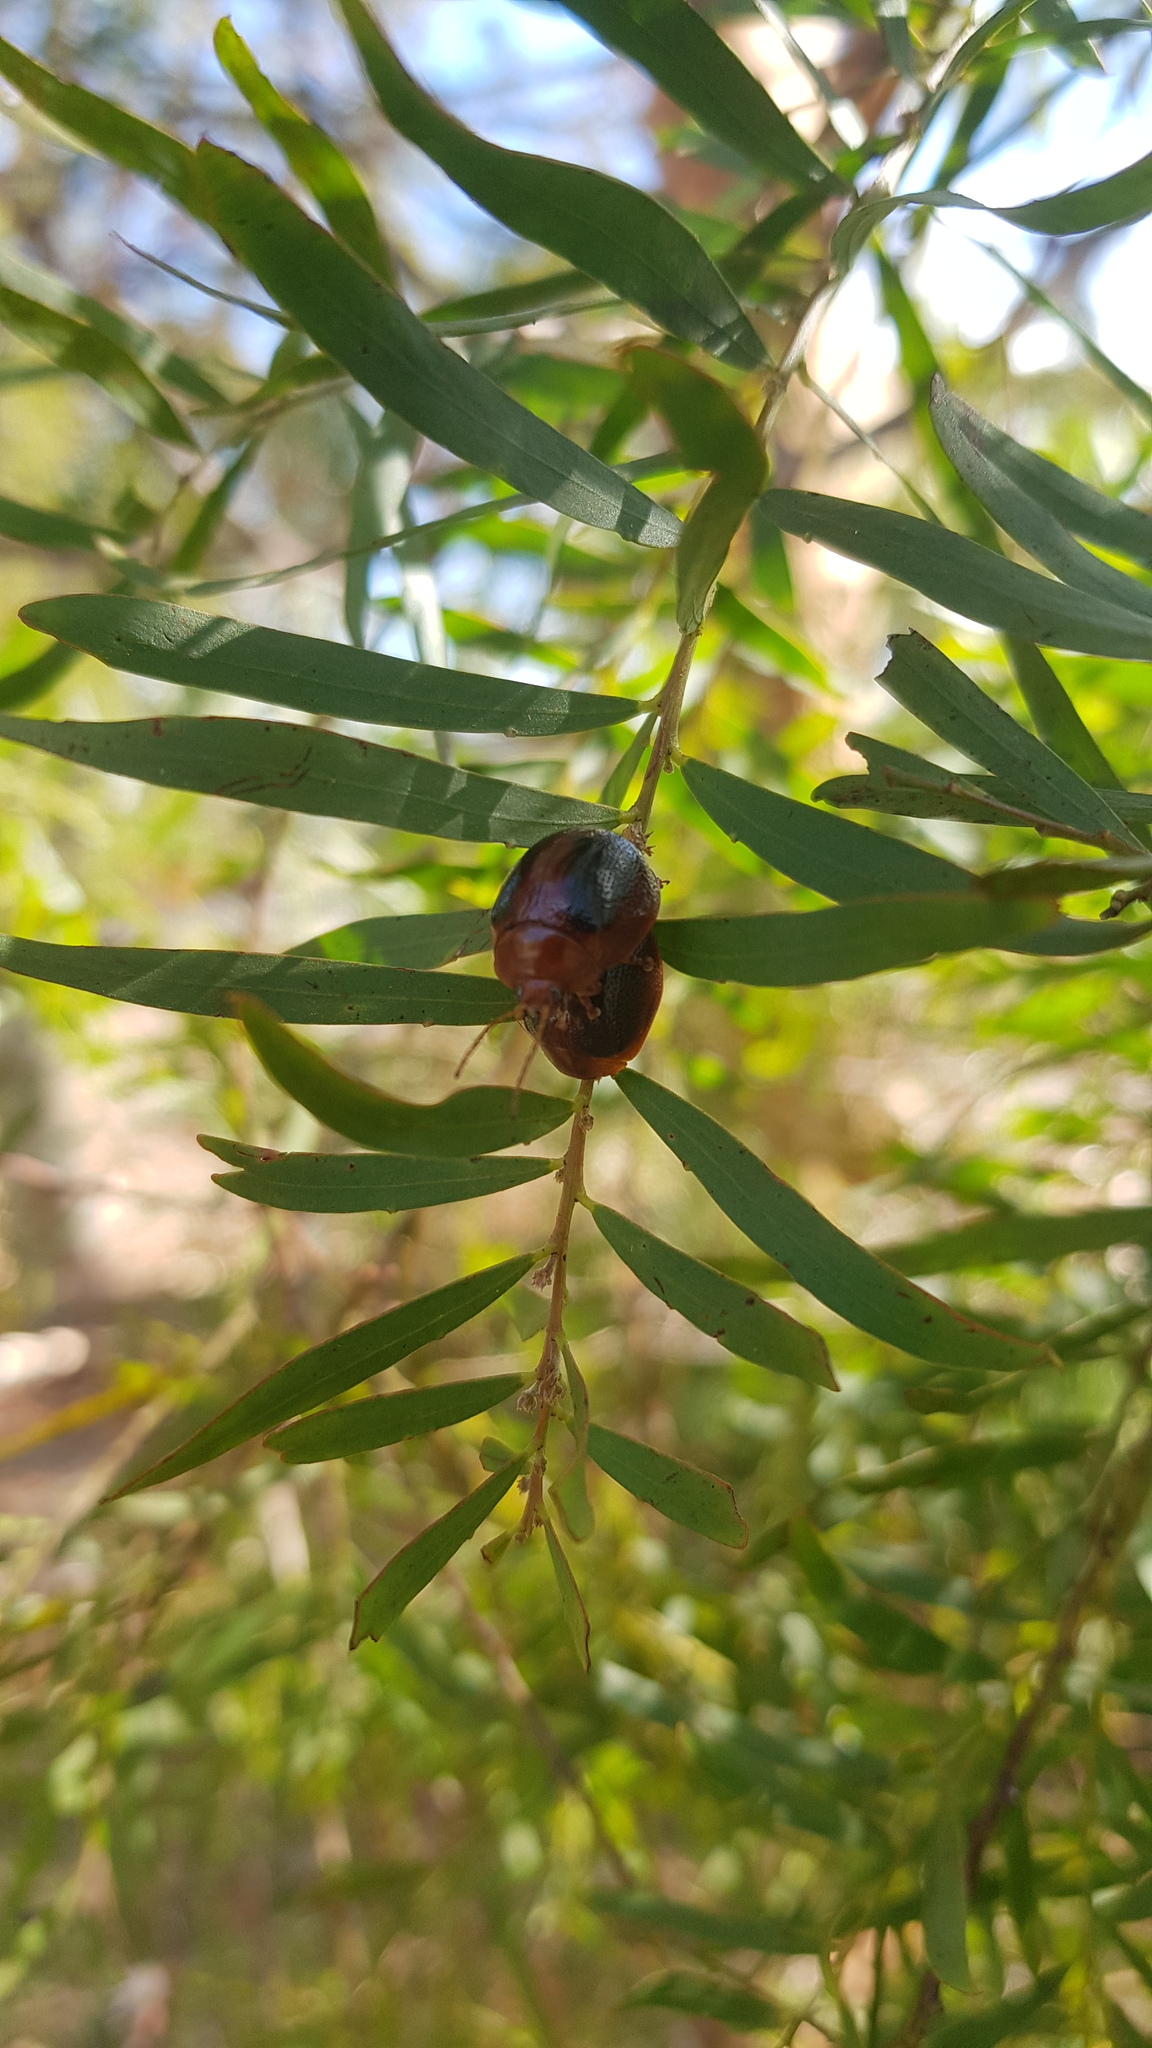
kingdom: Animalia
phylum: Arthropoda
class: Insecta
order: Coleoptera
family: Chrysomelidae
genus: Dicranosterna
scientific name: Dicranosterna
